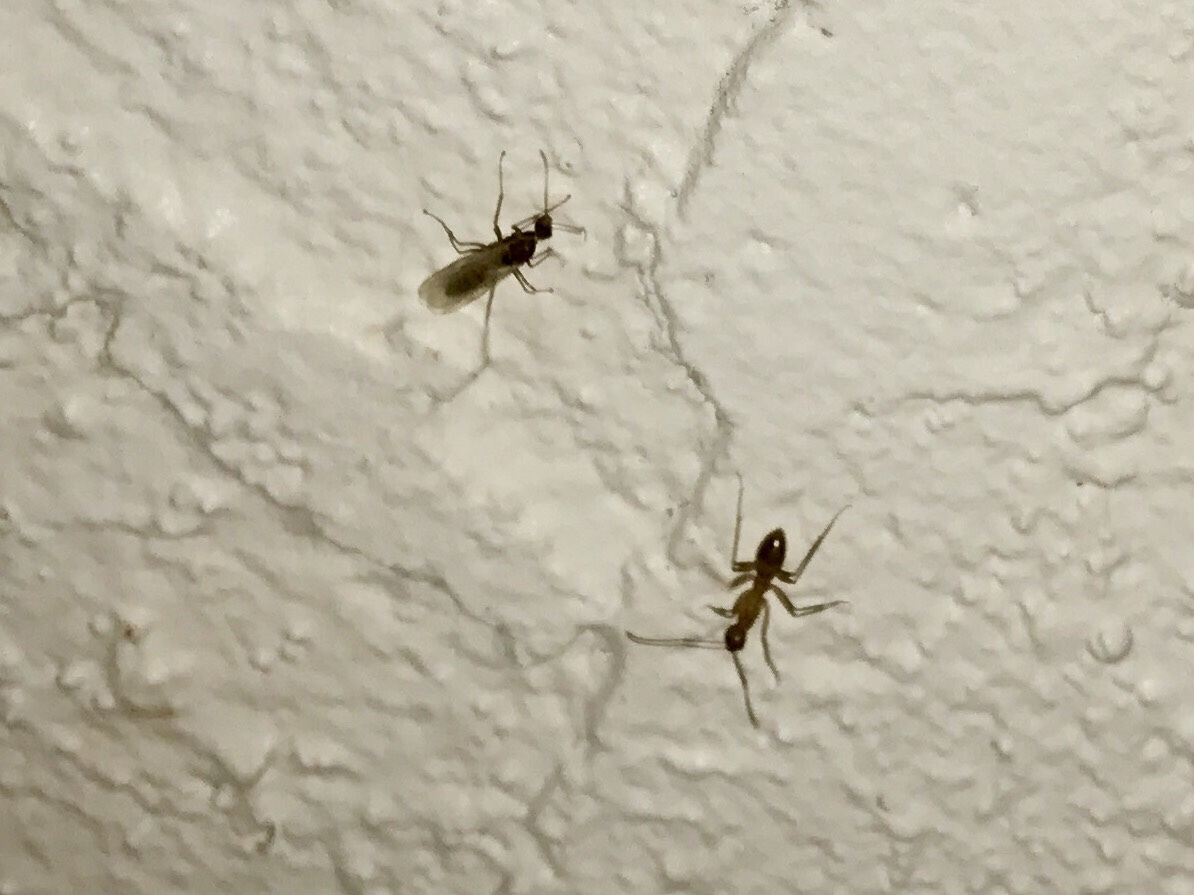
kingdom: Animalia
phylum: Arthropoda
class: Insecta
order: Hymenoptera
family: Formicidae
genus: Tanaemyrmex
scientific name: Tanaemyrmex
